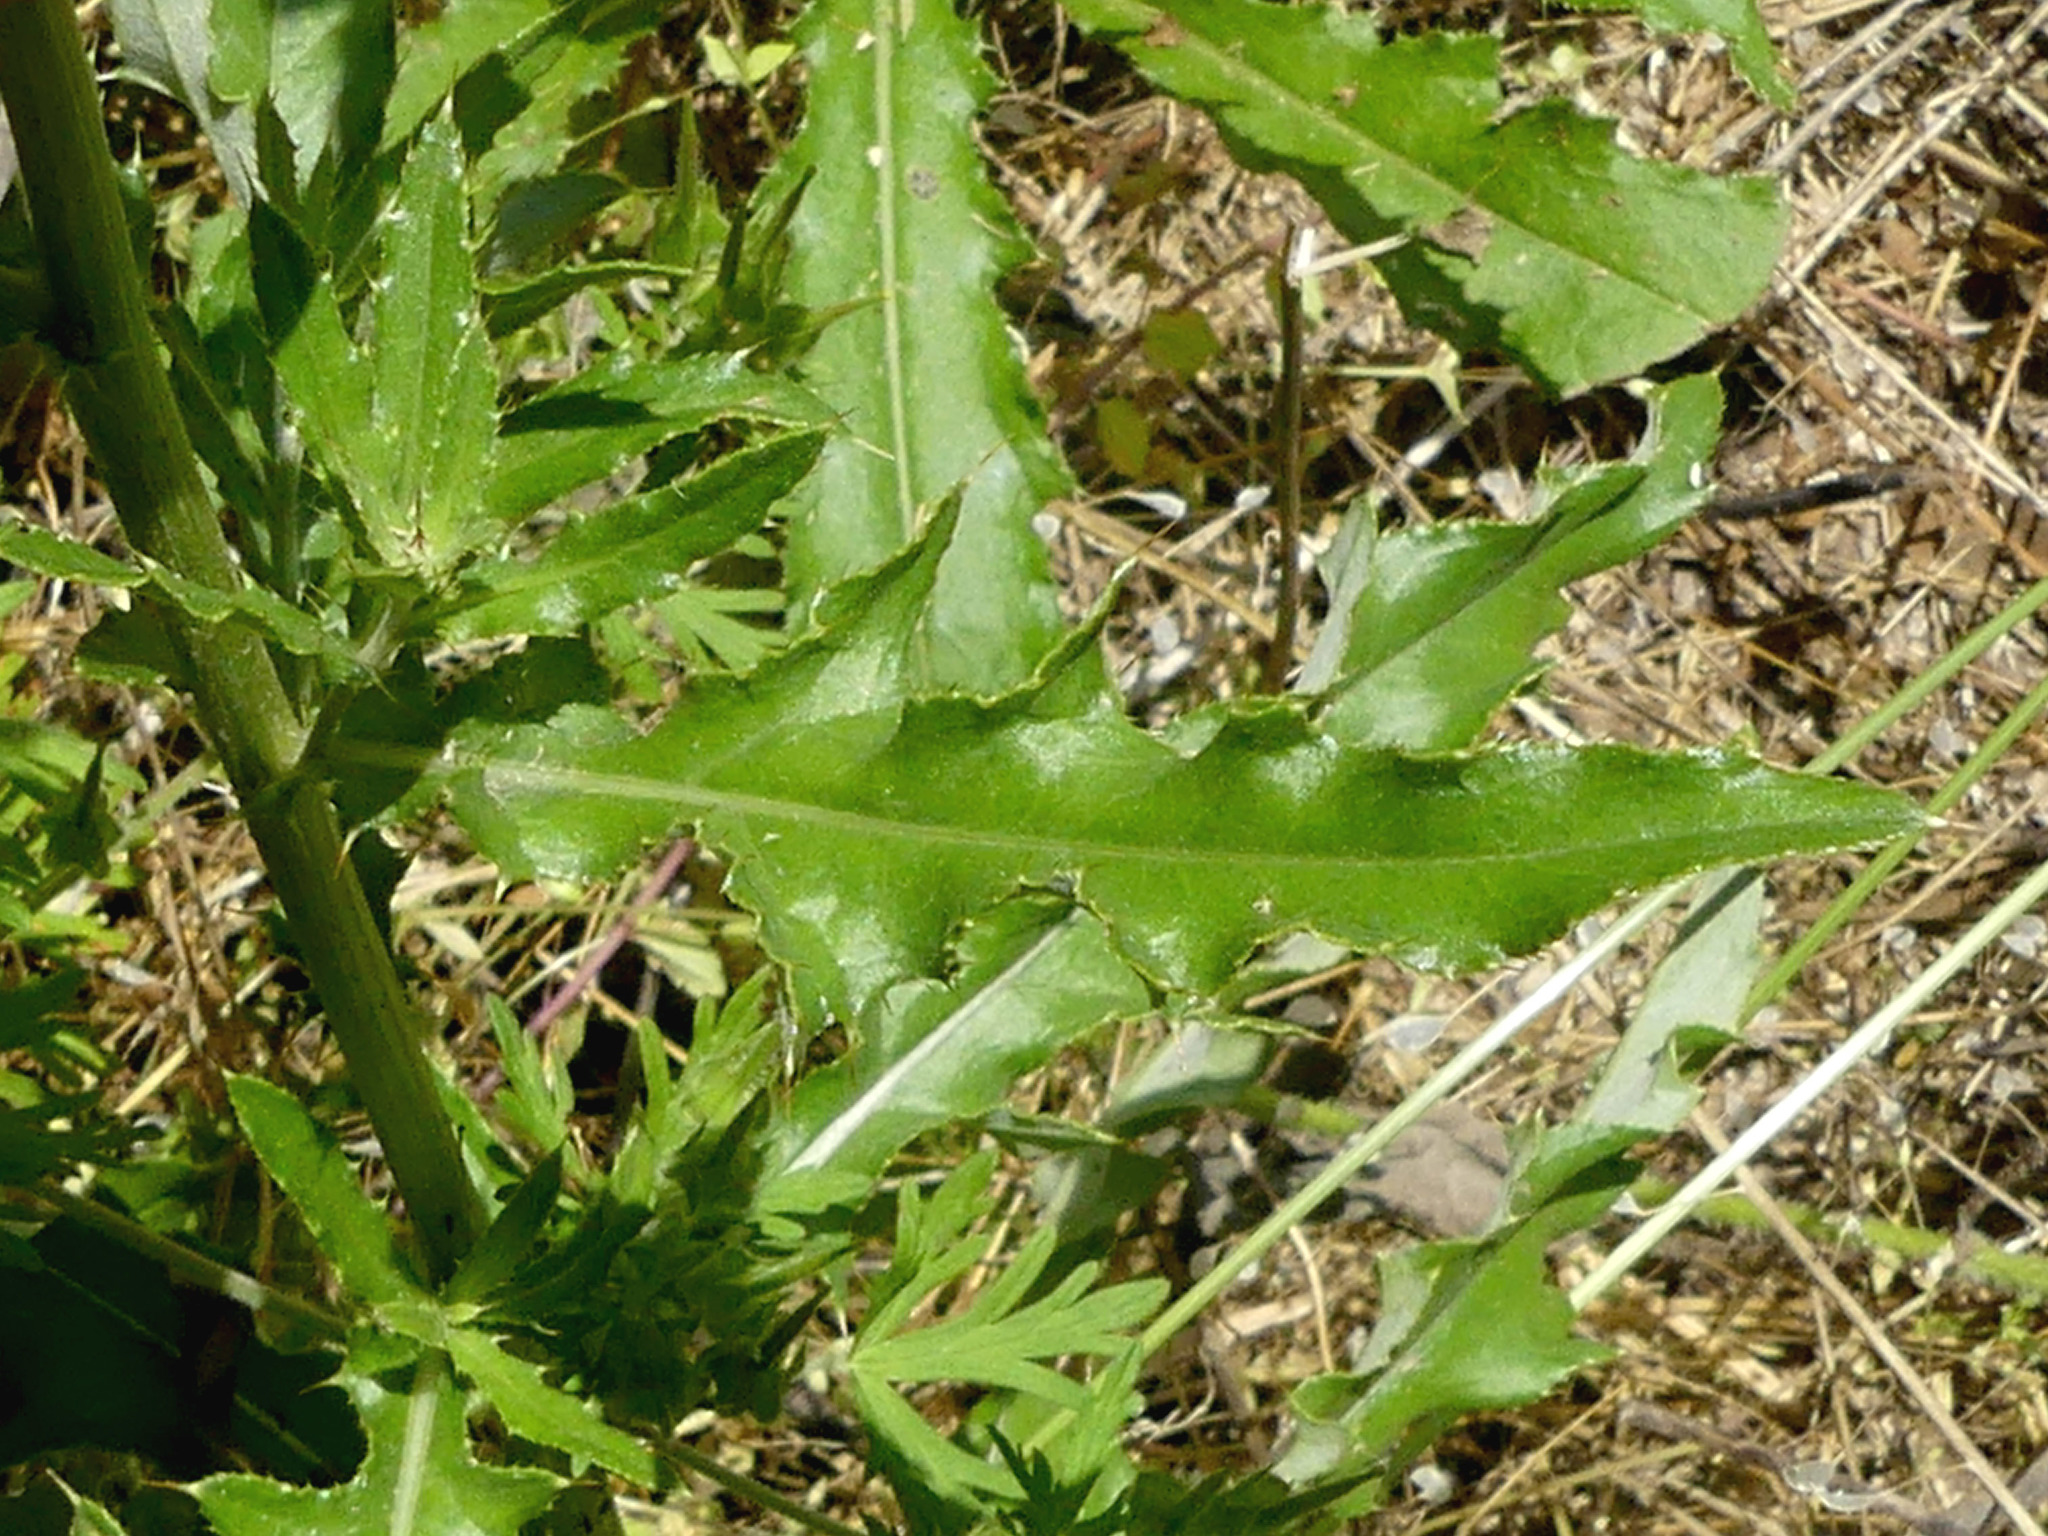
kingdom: Plantae
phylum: Tracheophyta
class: Magnoliopsida
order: Asterales
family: Asteraceae
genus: Cirsium
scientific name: Cirsium arvense
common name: Creeping thistle
